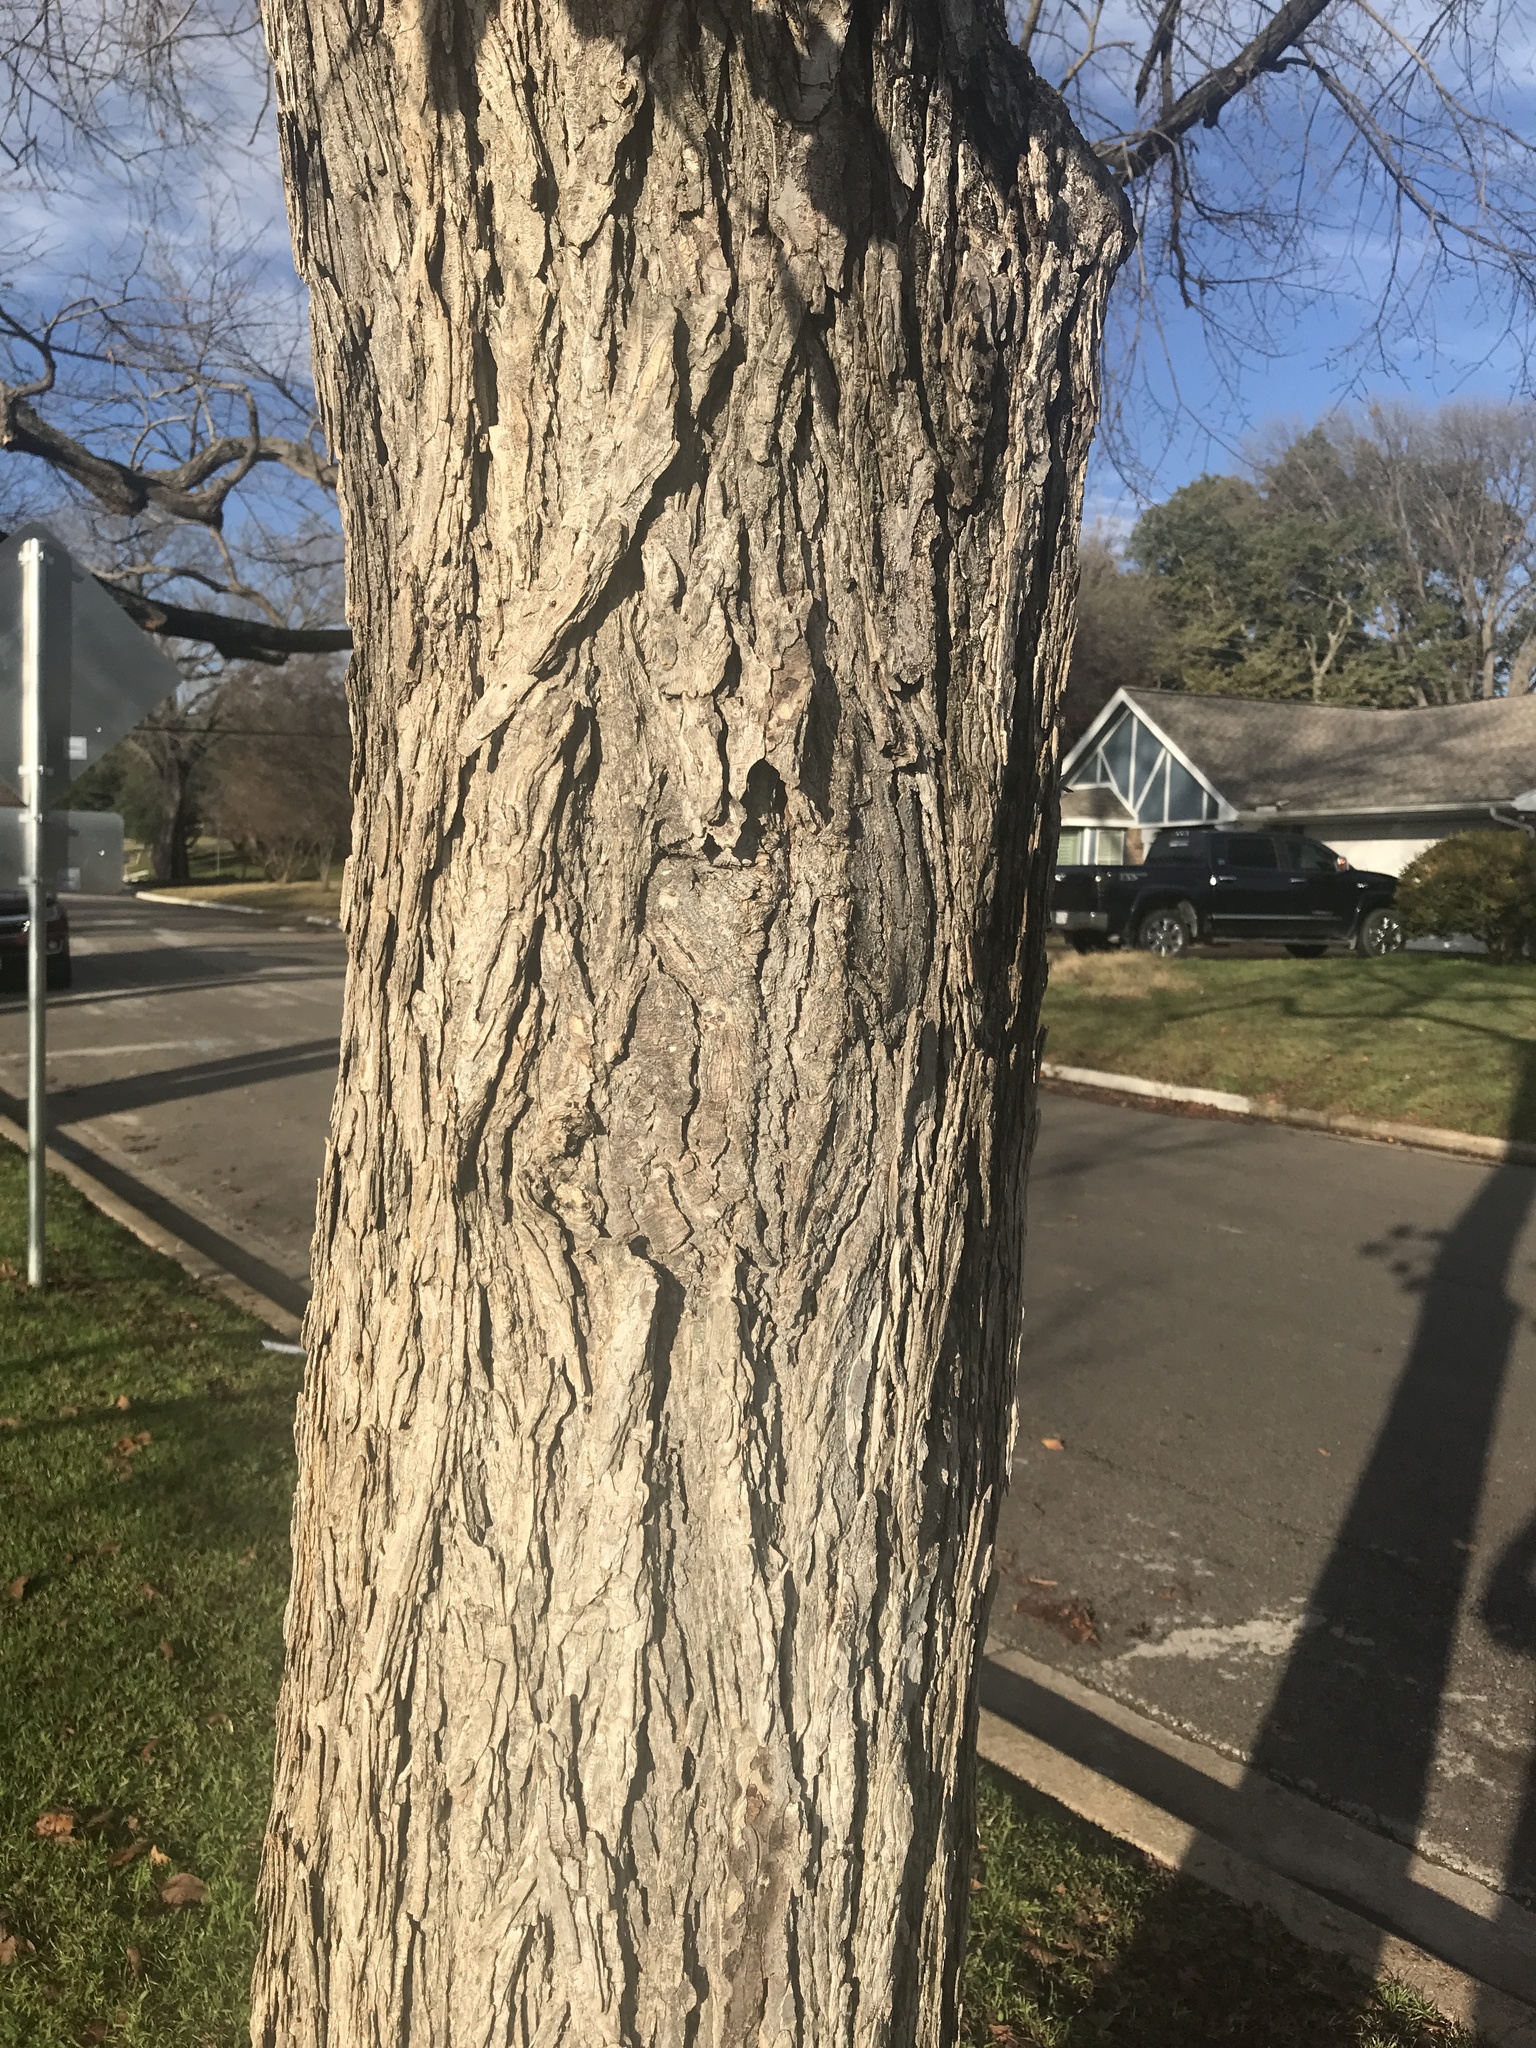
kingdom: Plantae
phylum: Tracheophyta
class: Magnoliopsida
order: Rosales
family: Ulmaceae
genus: Ulmus
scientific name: Ulmus americana
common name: American elm
